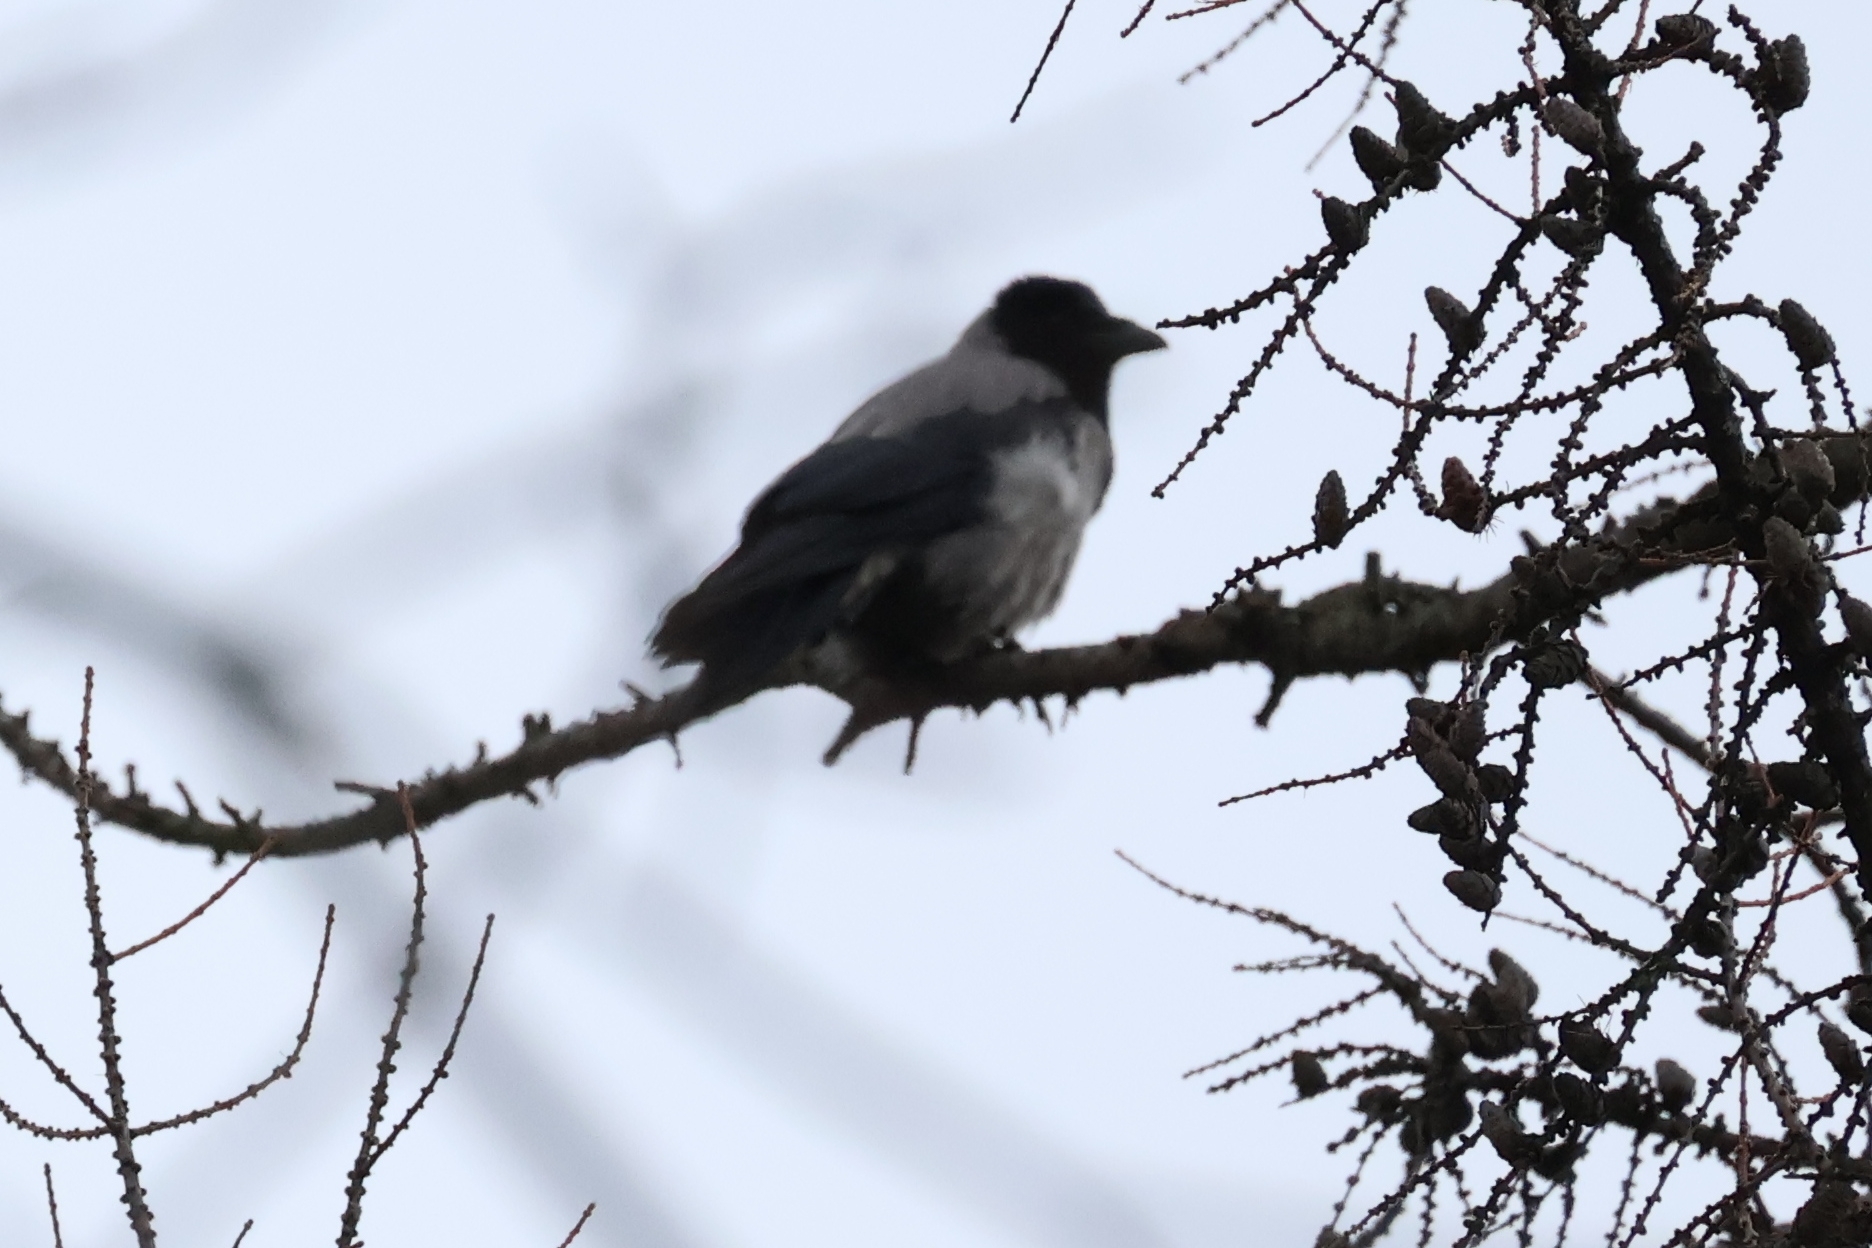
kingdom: Animalia
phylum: Chordata
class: Aves
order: Passeriformes
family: Corvidae
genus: Corvus
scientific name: Corvus cornix
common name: Hooded crow
